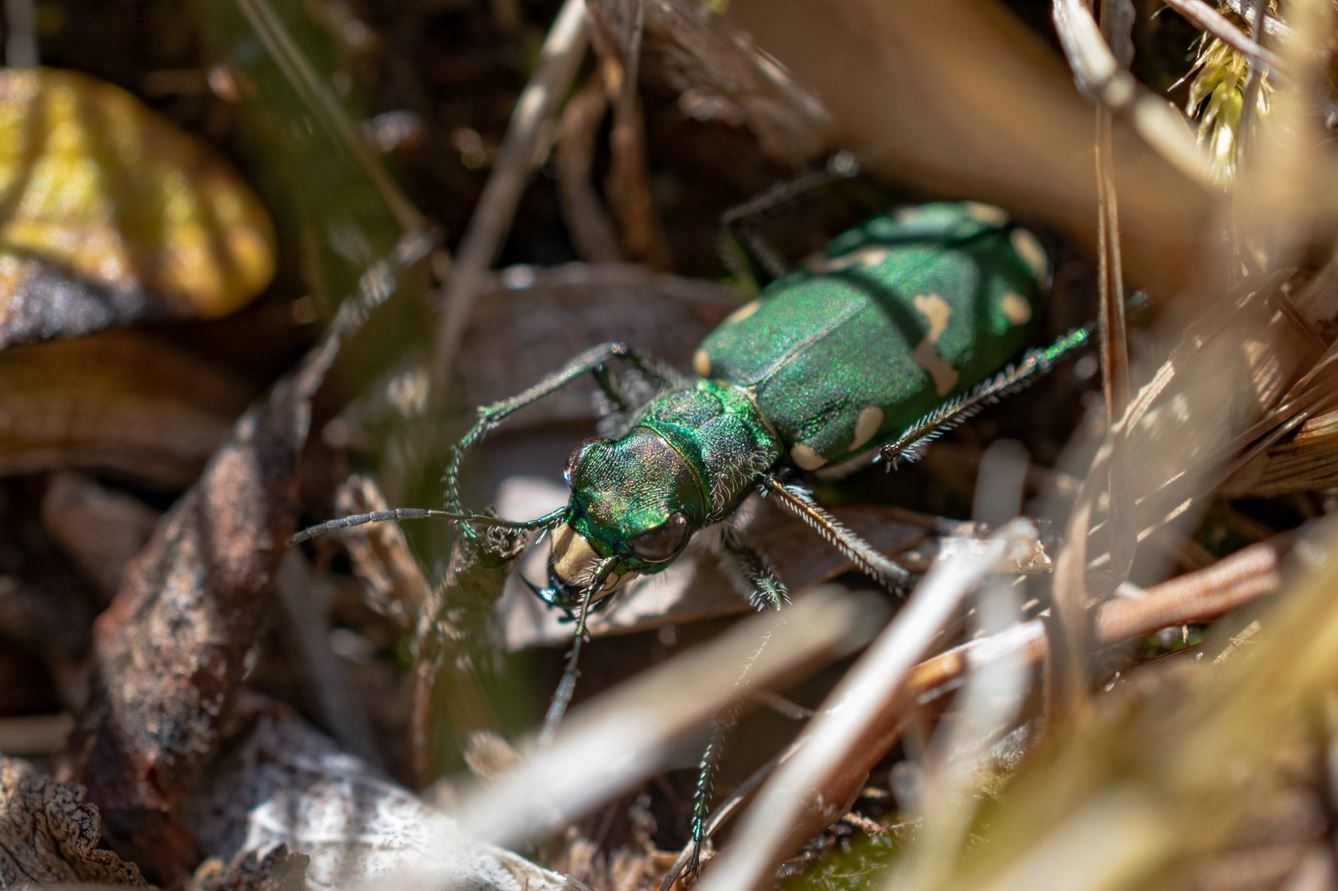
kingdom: Animalia
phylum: Arthropoda
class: Insecta
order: Coleoptera
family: Carabidae
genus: Cicindela
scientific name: Cicindela gallica
